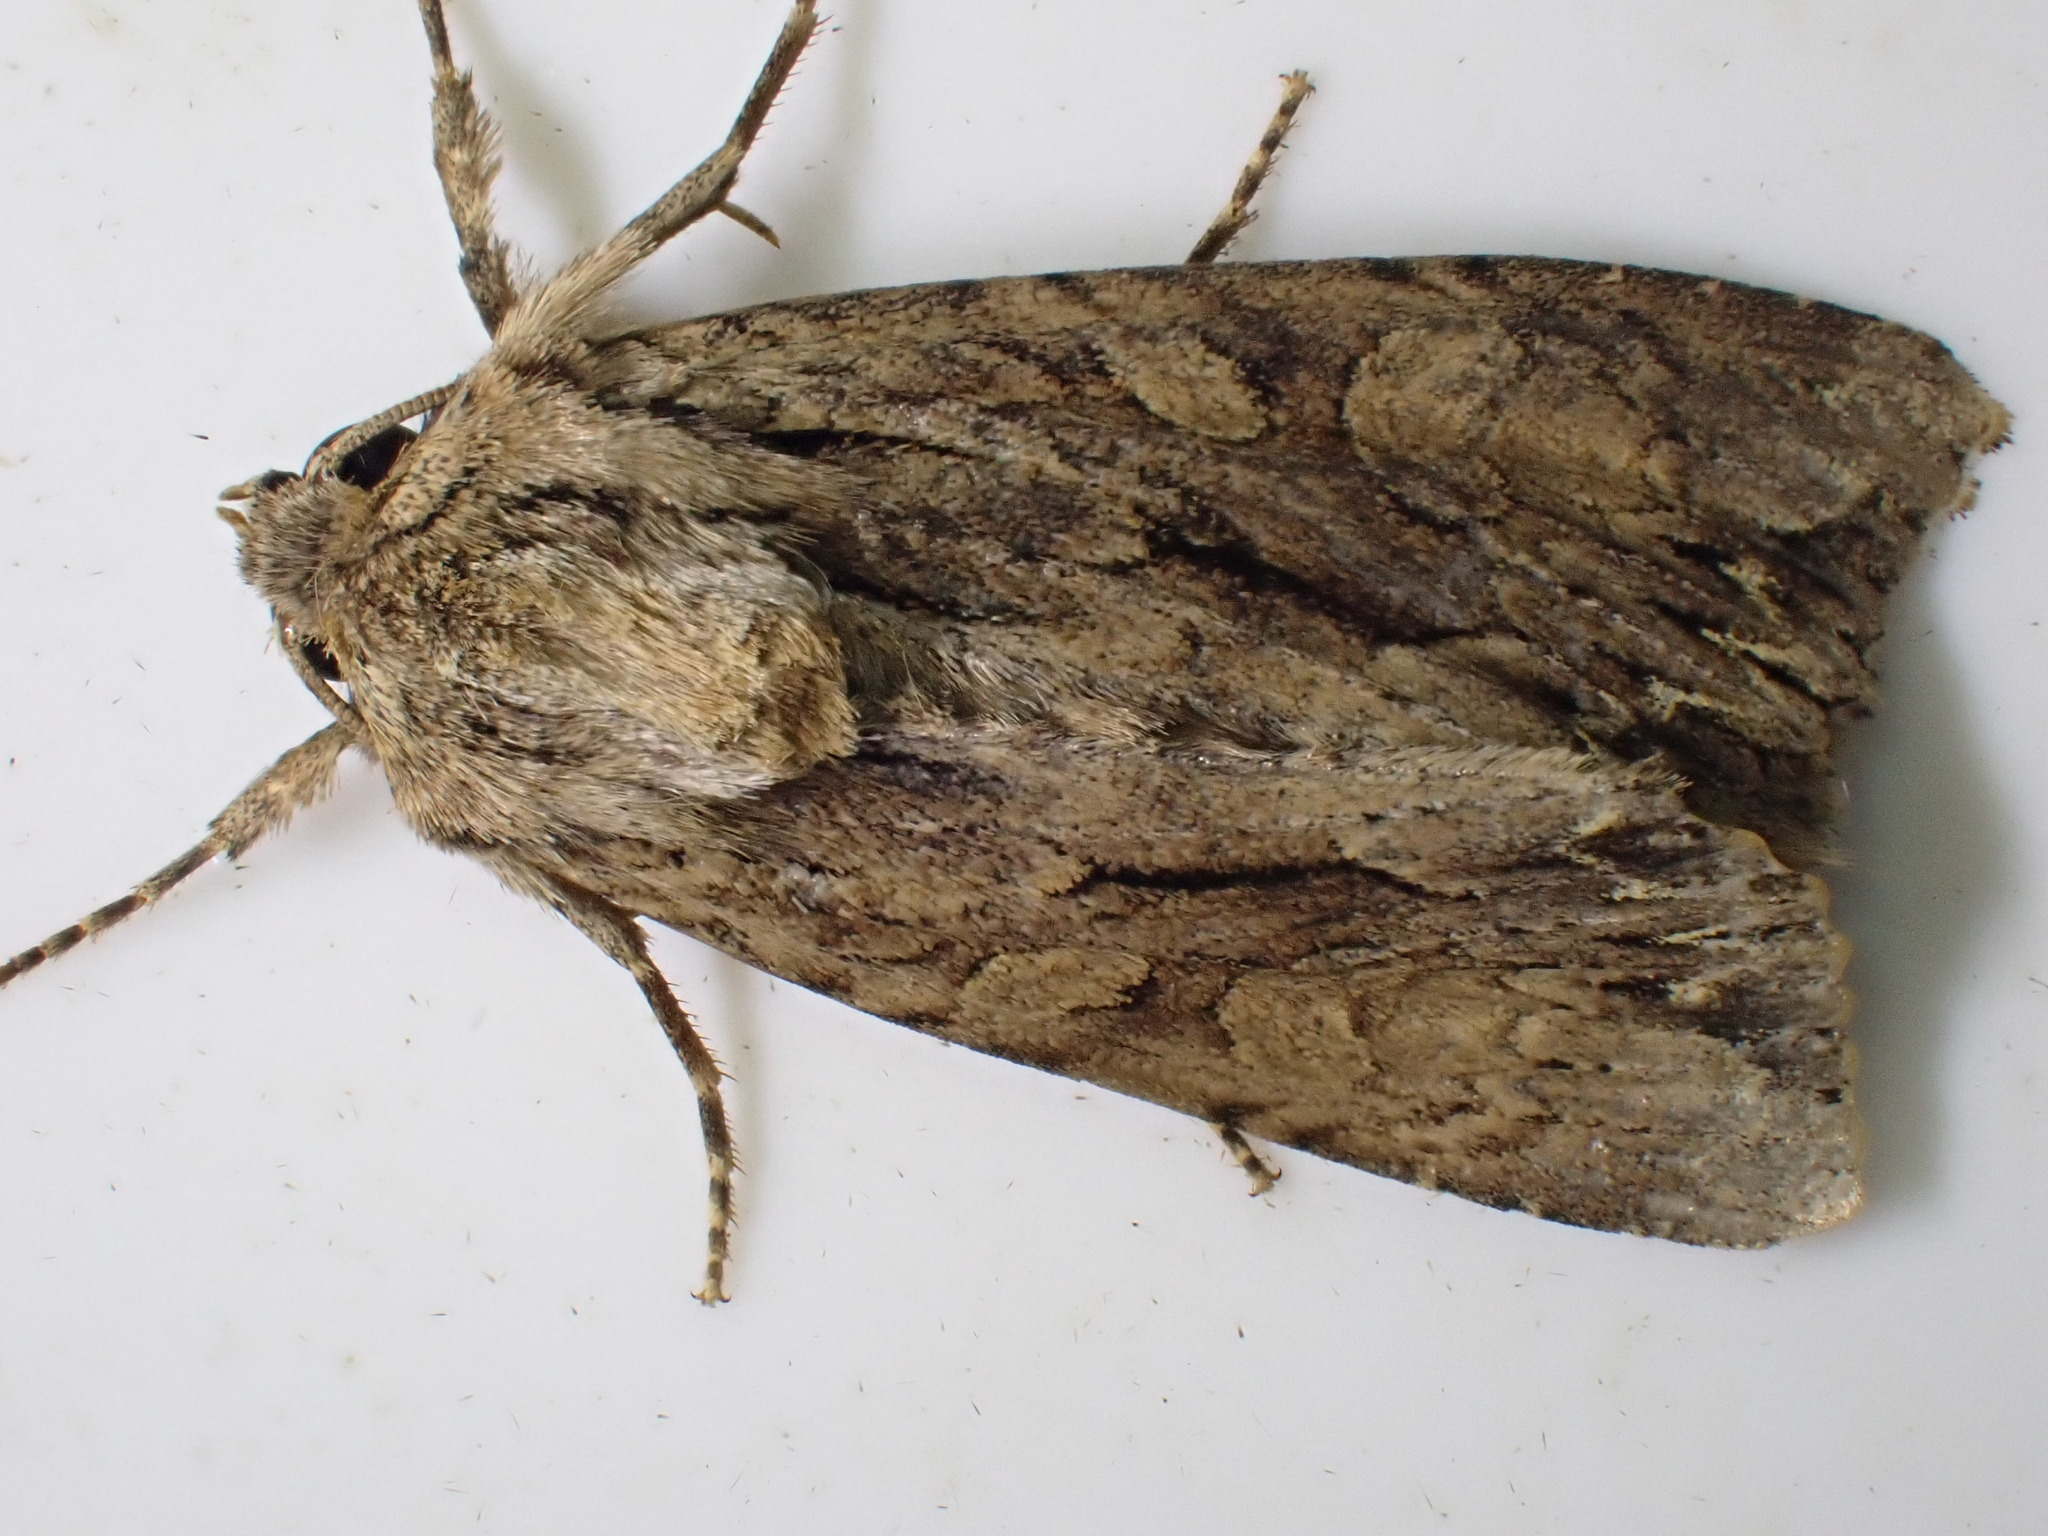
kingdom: Animalia
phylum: Arthropoda
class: Insecta
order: Lepidoptera
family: Noctuidae
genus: Apamea
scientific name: Apamea monoglypha
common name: Dark arches
